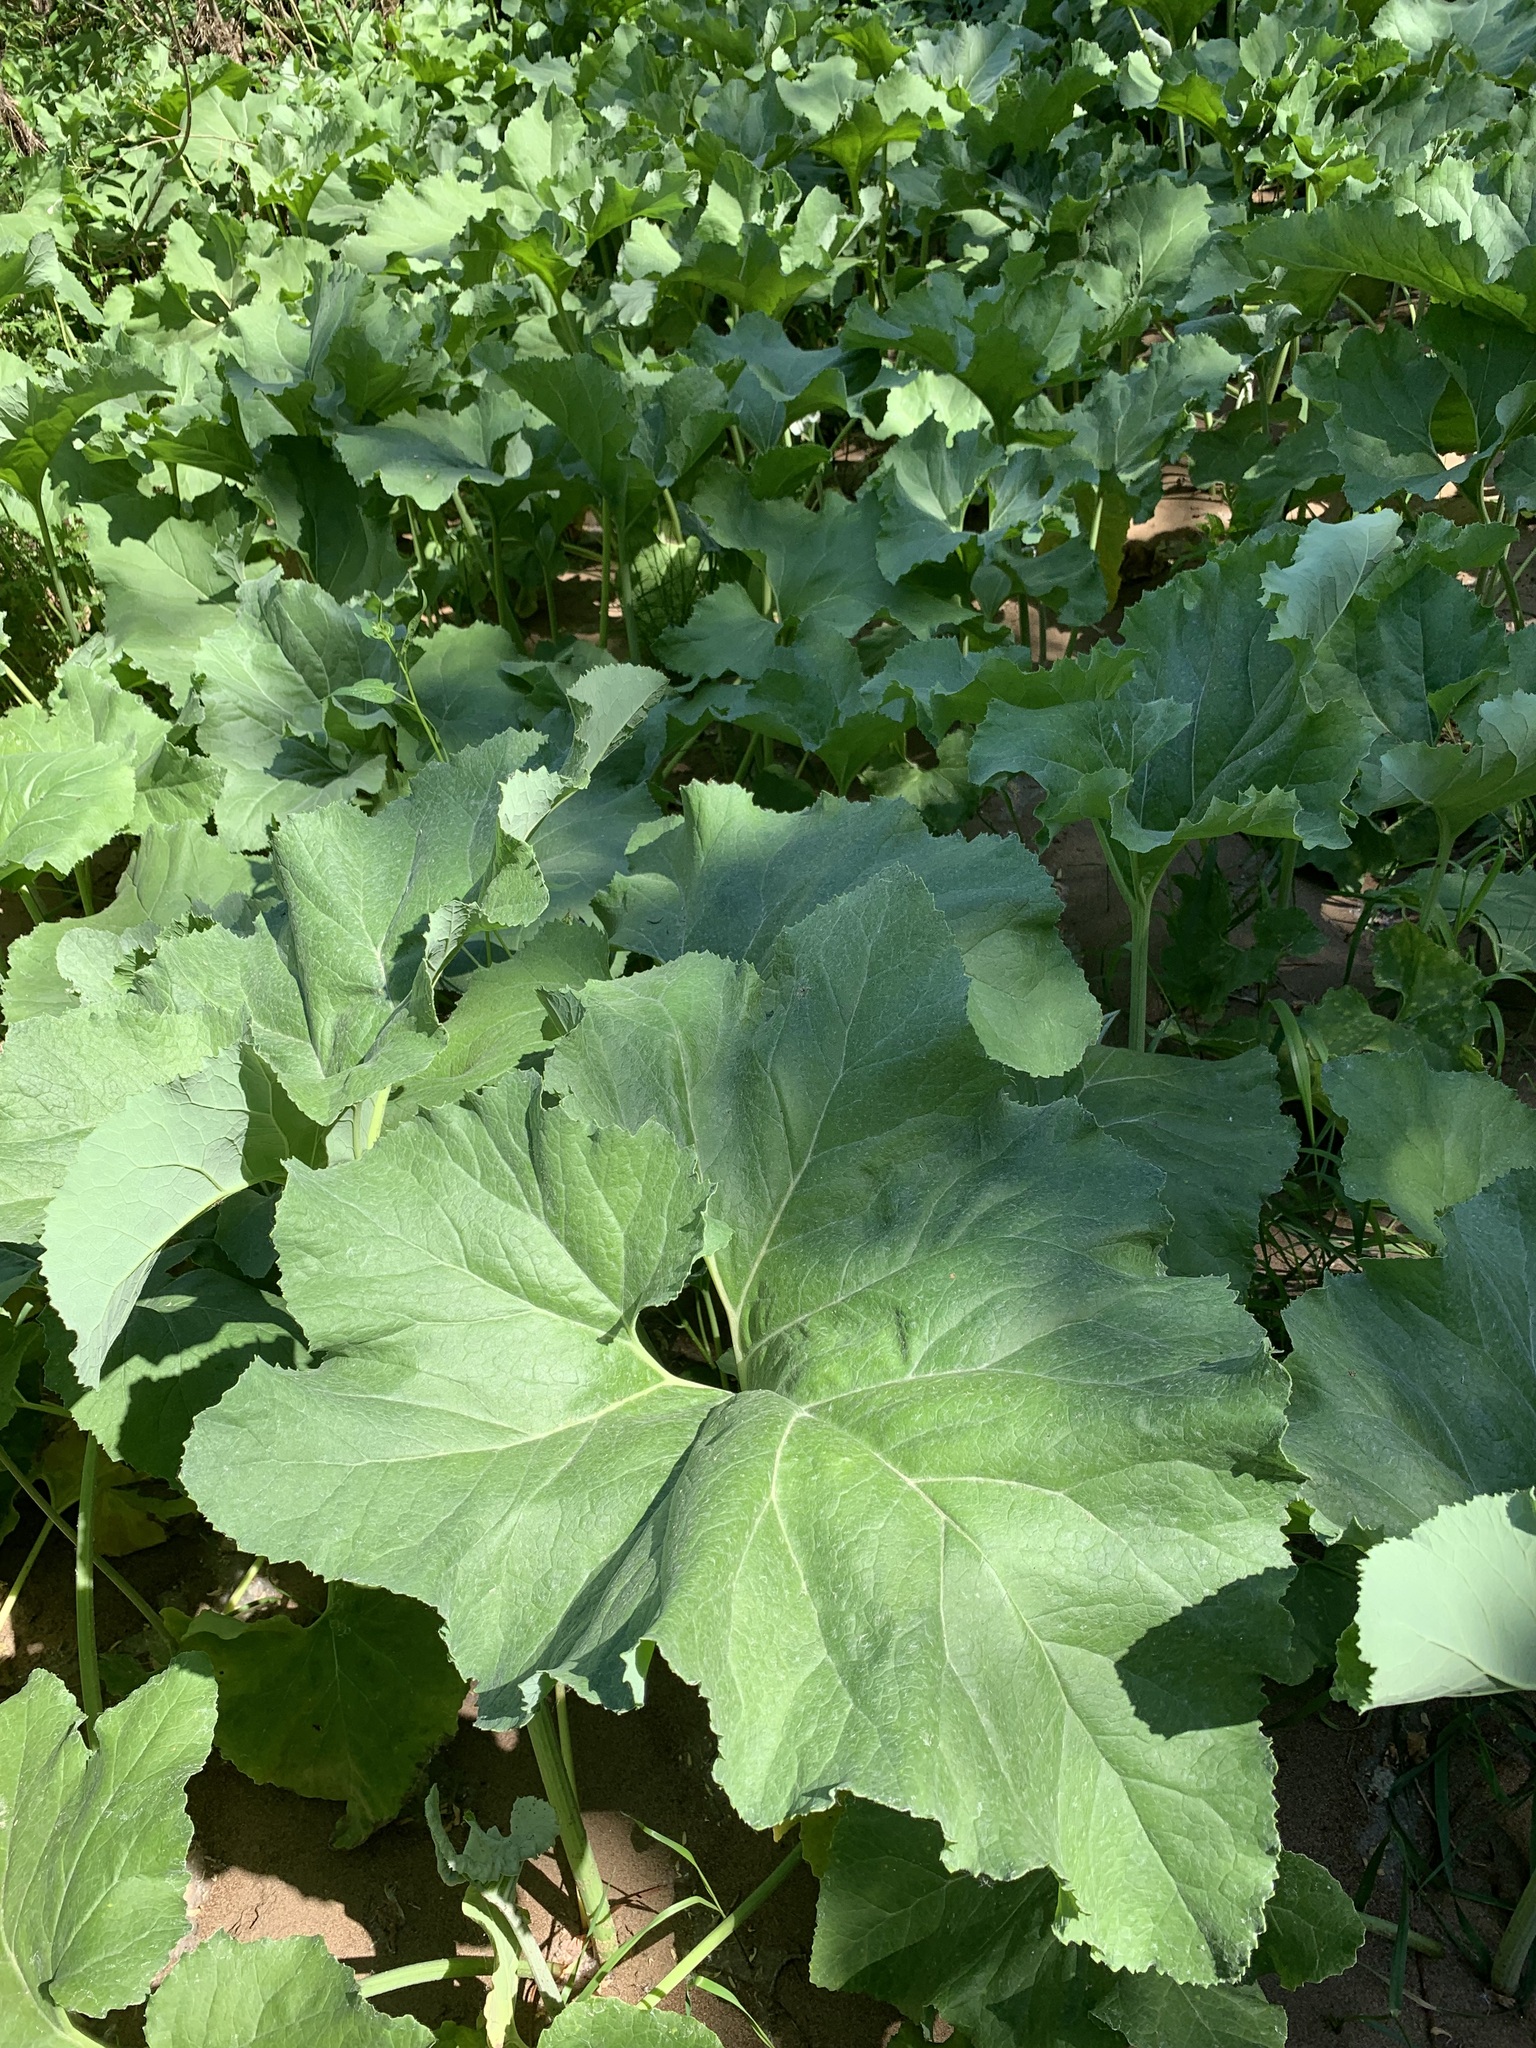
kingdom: Plantae
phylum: Tracheophyta
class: Magnoliopsida
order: Asterales
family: Asteraceae
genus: Petasites
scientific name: Petasites spurius
